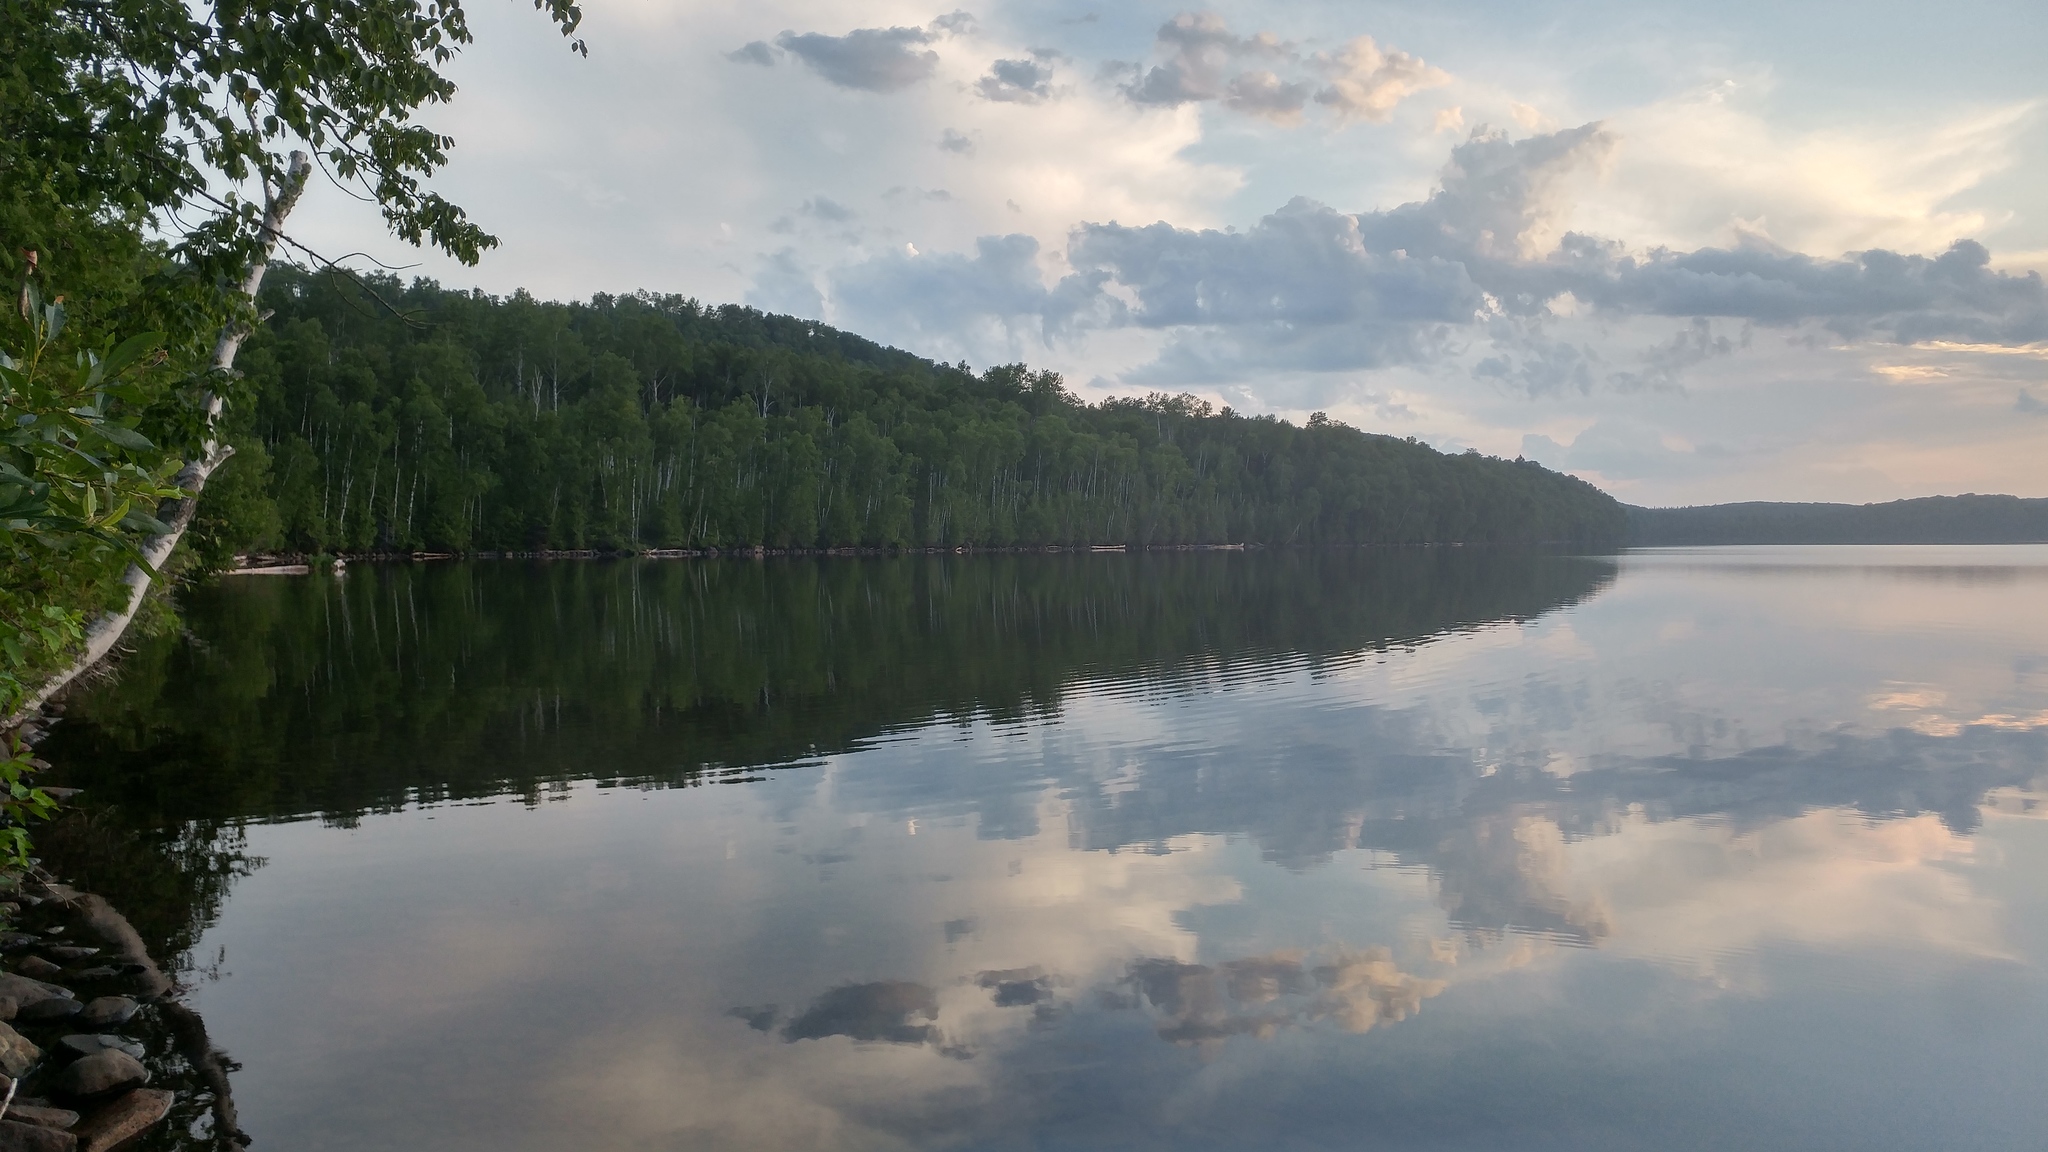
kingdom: Plantae
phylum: Tracheophyta
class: Magnoliopsida
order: Malpighiales
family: Salicaceae
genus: Populus
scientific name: Populus tremuloides
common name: Quaking aspen
